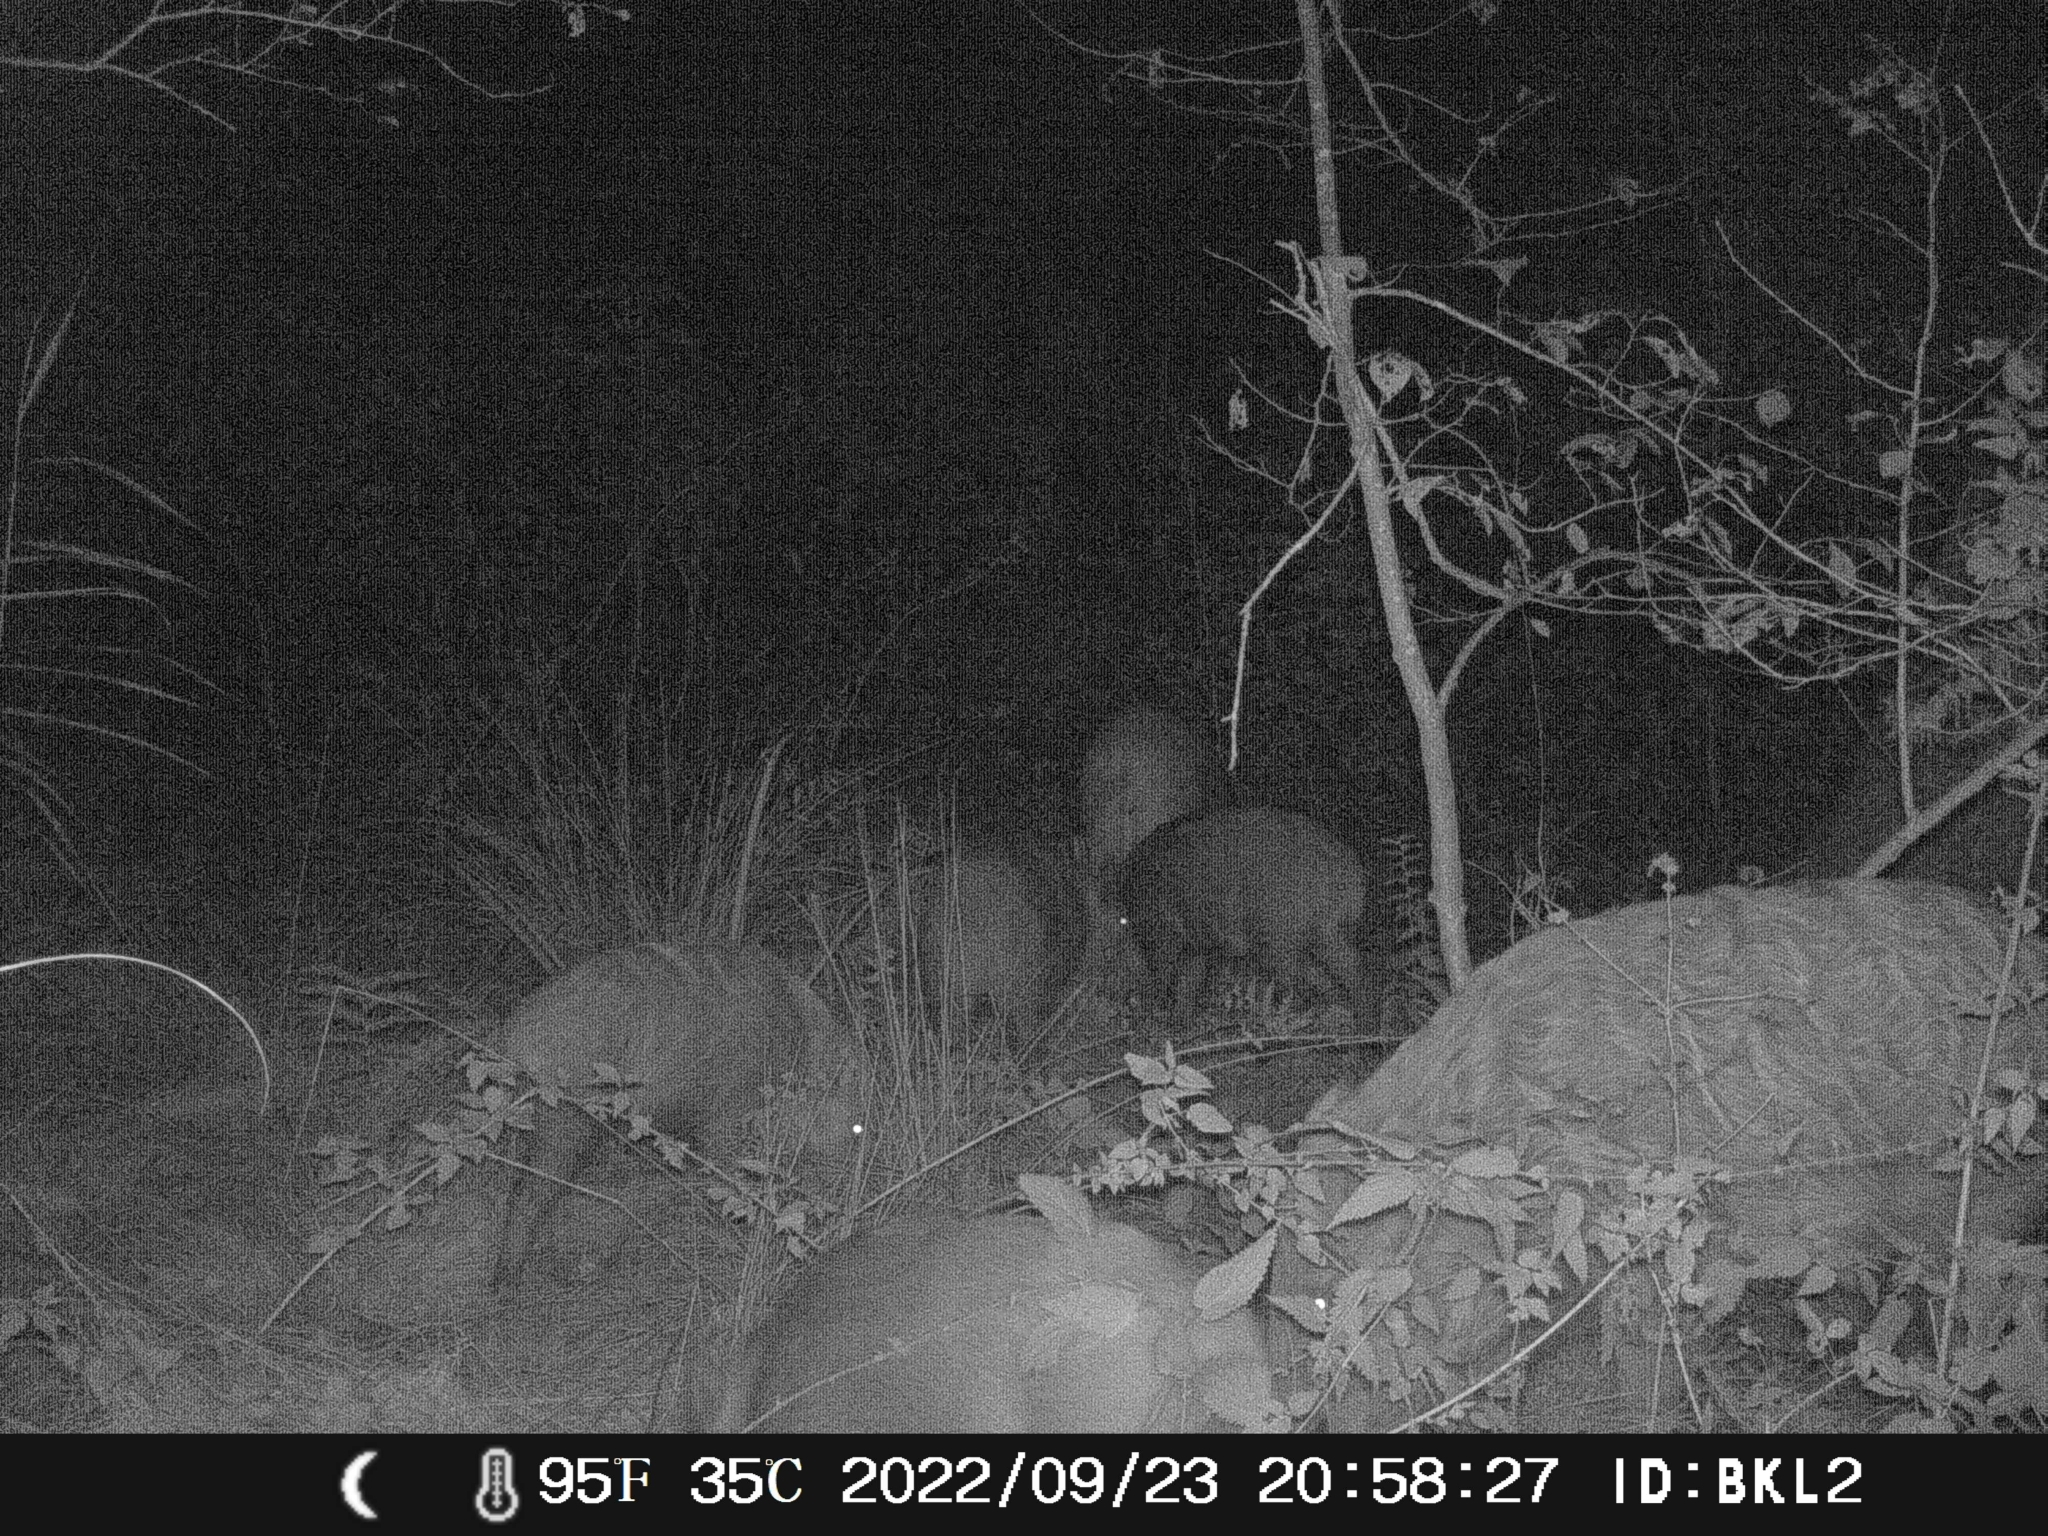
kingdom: Animalia
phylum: Chordata
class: Mammalia
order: Artiodactyla
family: Suidae
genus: Sus
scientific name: Sus scrofa
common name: Wild boar
